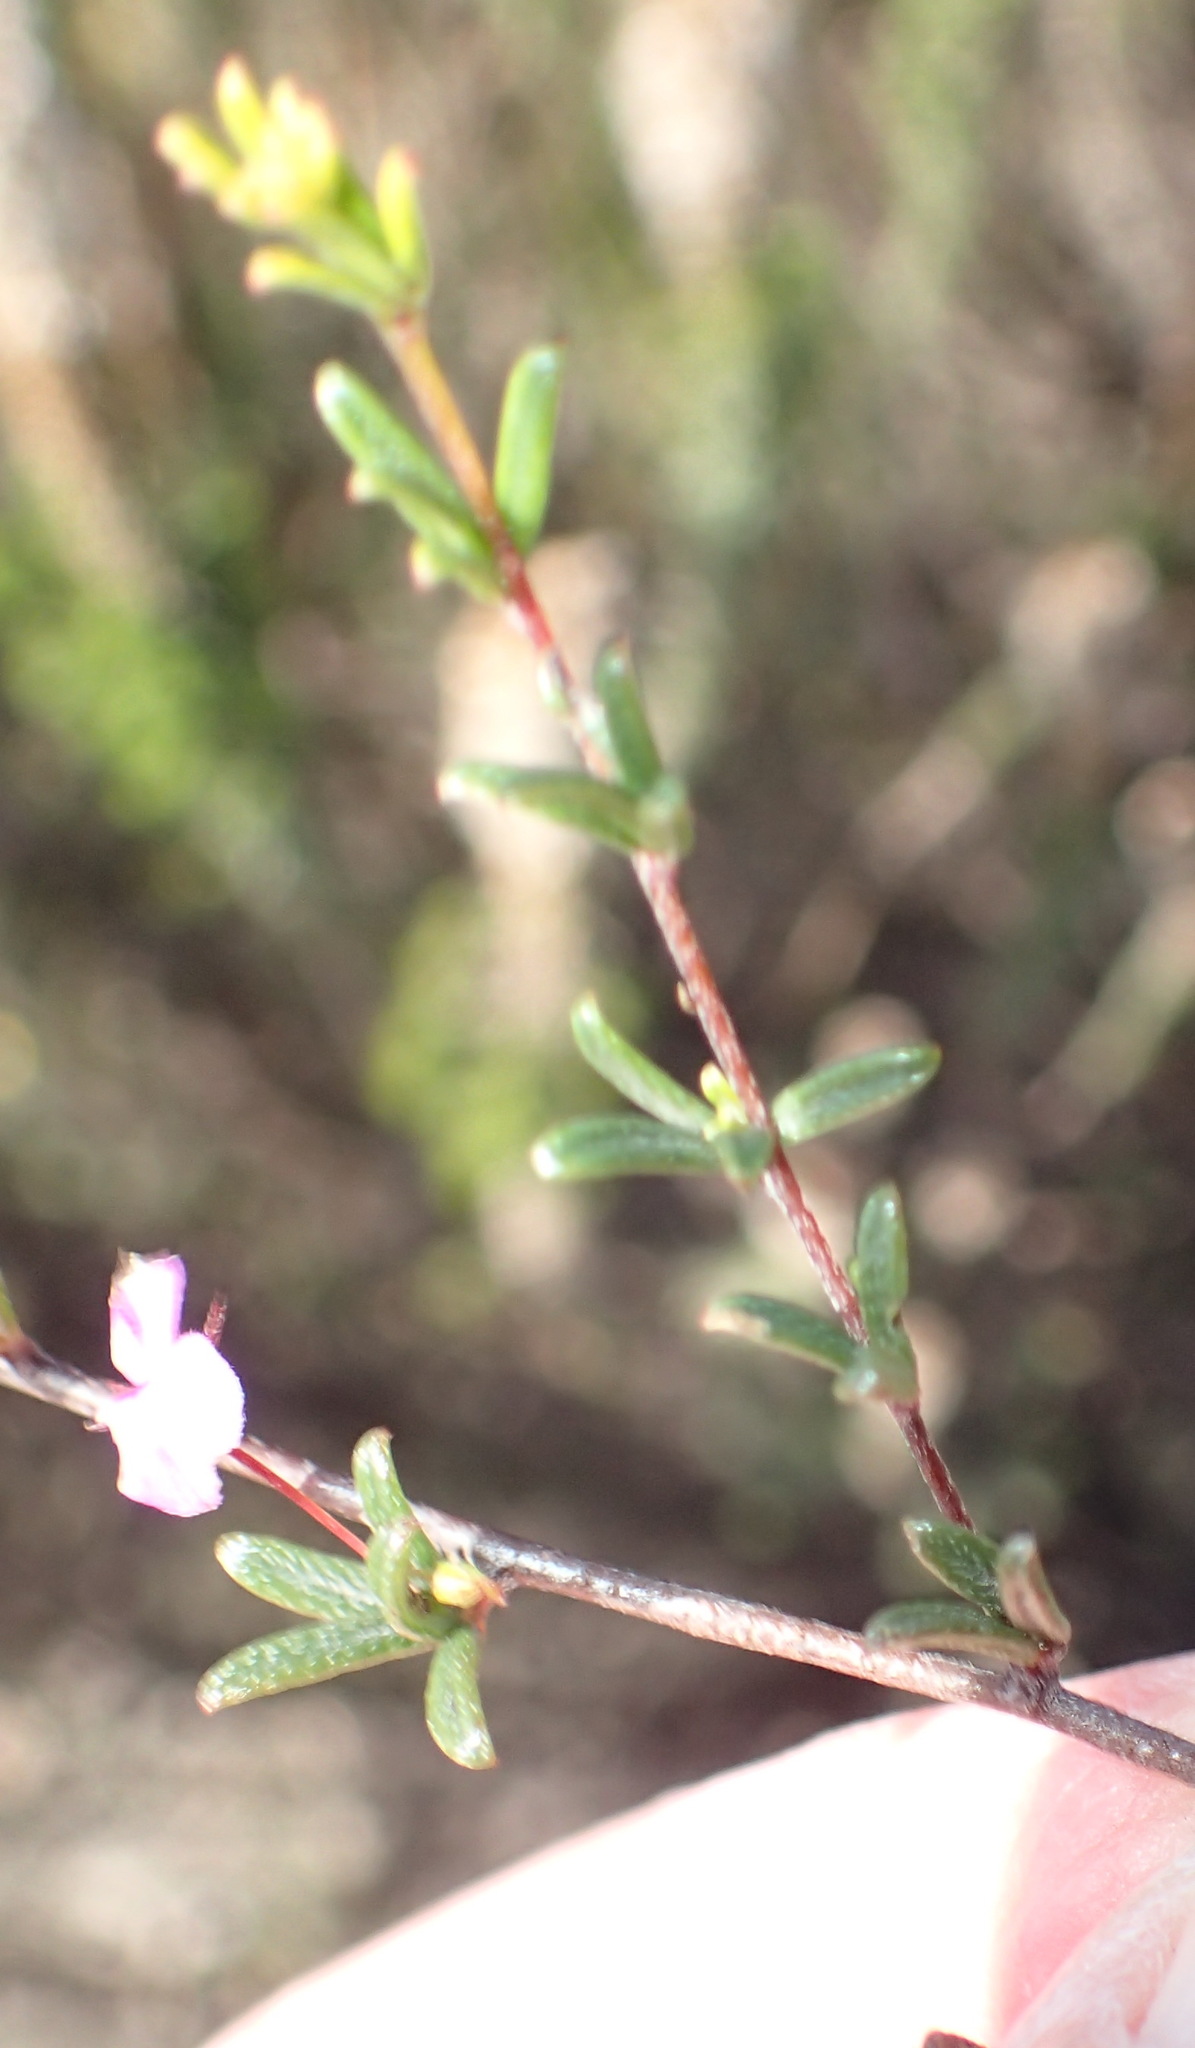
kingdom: Plantae
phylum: Tracheophyta
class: Magnoliopsida
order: Fabales
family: Fabaceae
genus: Indigofera
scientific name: Indigofera setosa
